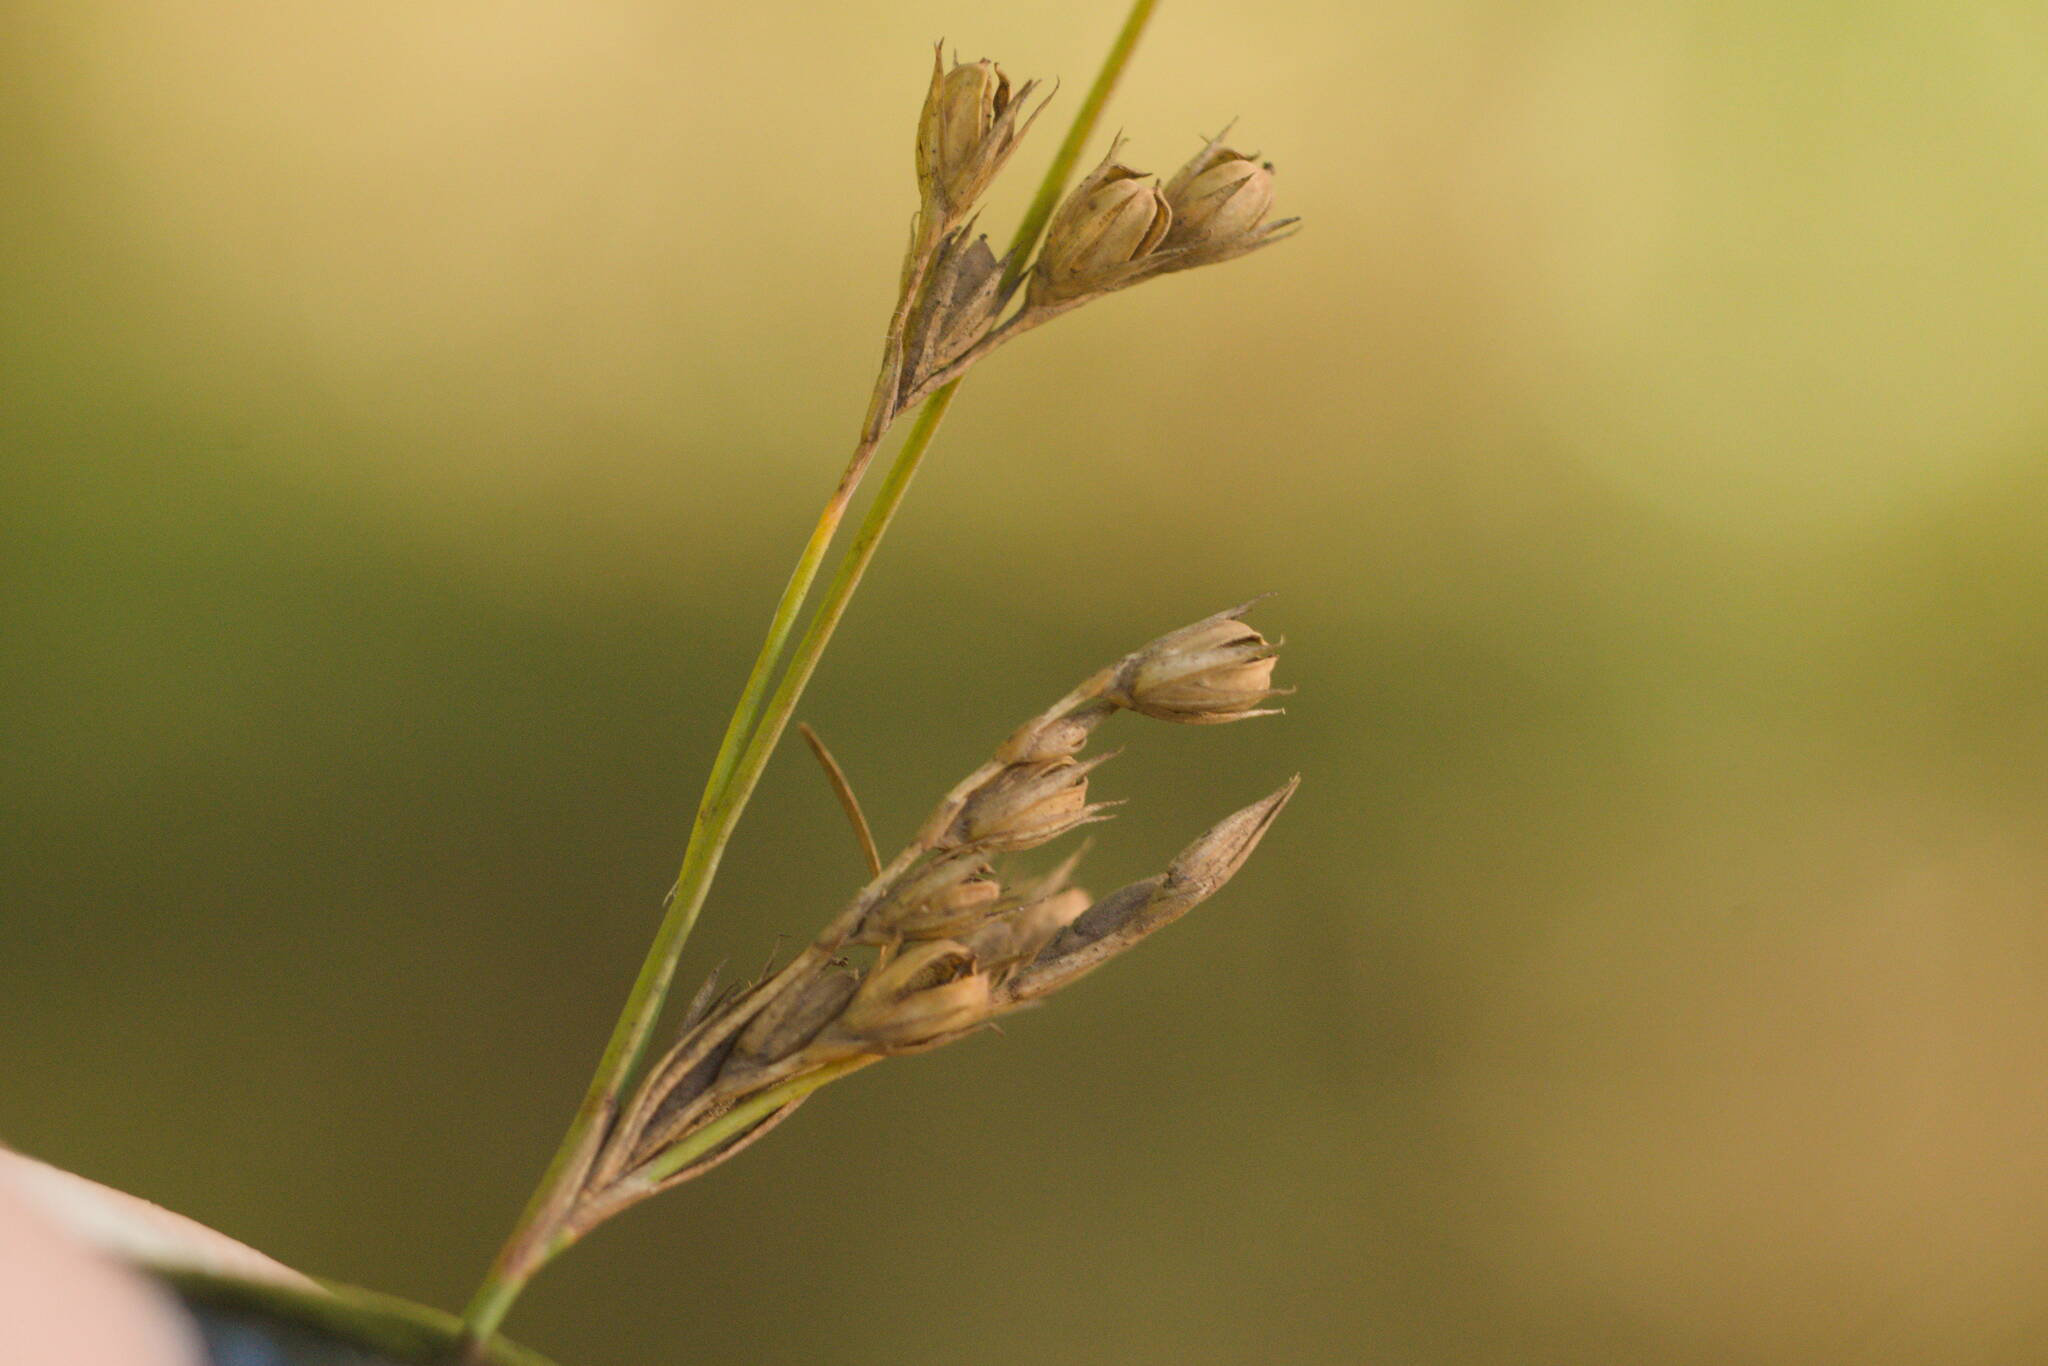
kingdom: Plantae
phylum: Tracheophyta
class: Liliopsida
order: Poales
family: Juncaceae
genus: Juncus
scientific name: Juncus tenuis
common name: Slender rush
